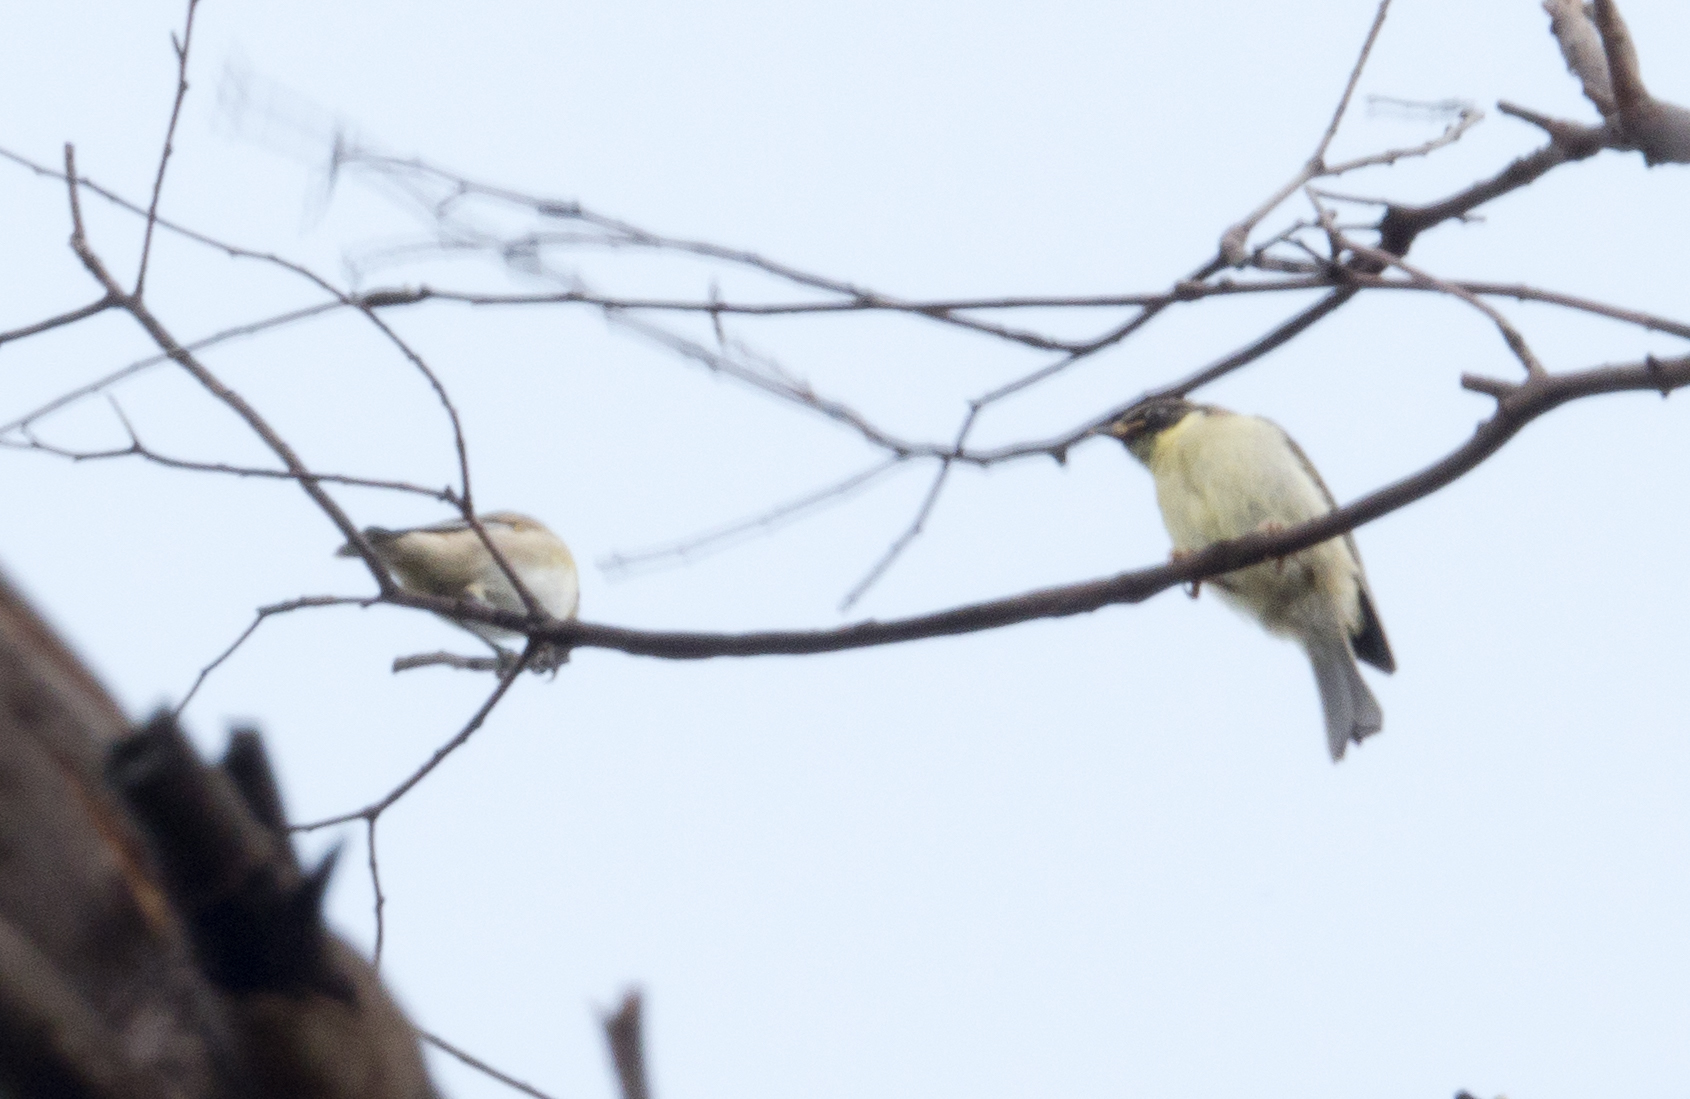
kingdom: Animalia
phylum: Chordata
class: Aves
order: Passeriformes
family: Meliphagidae
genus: Melithreptus
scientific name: Melithreptus affinis
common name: Black-headed honeyeater
